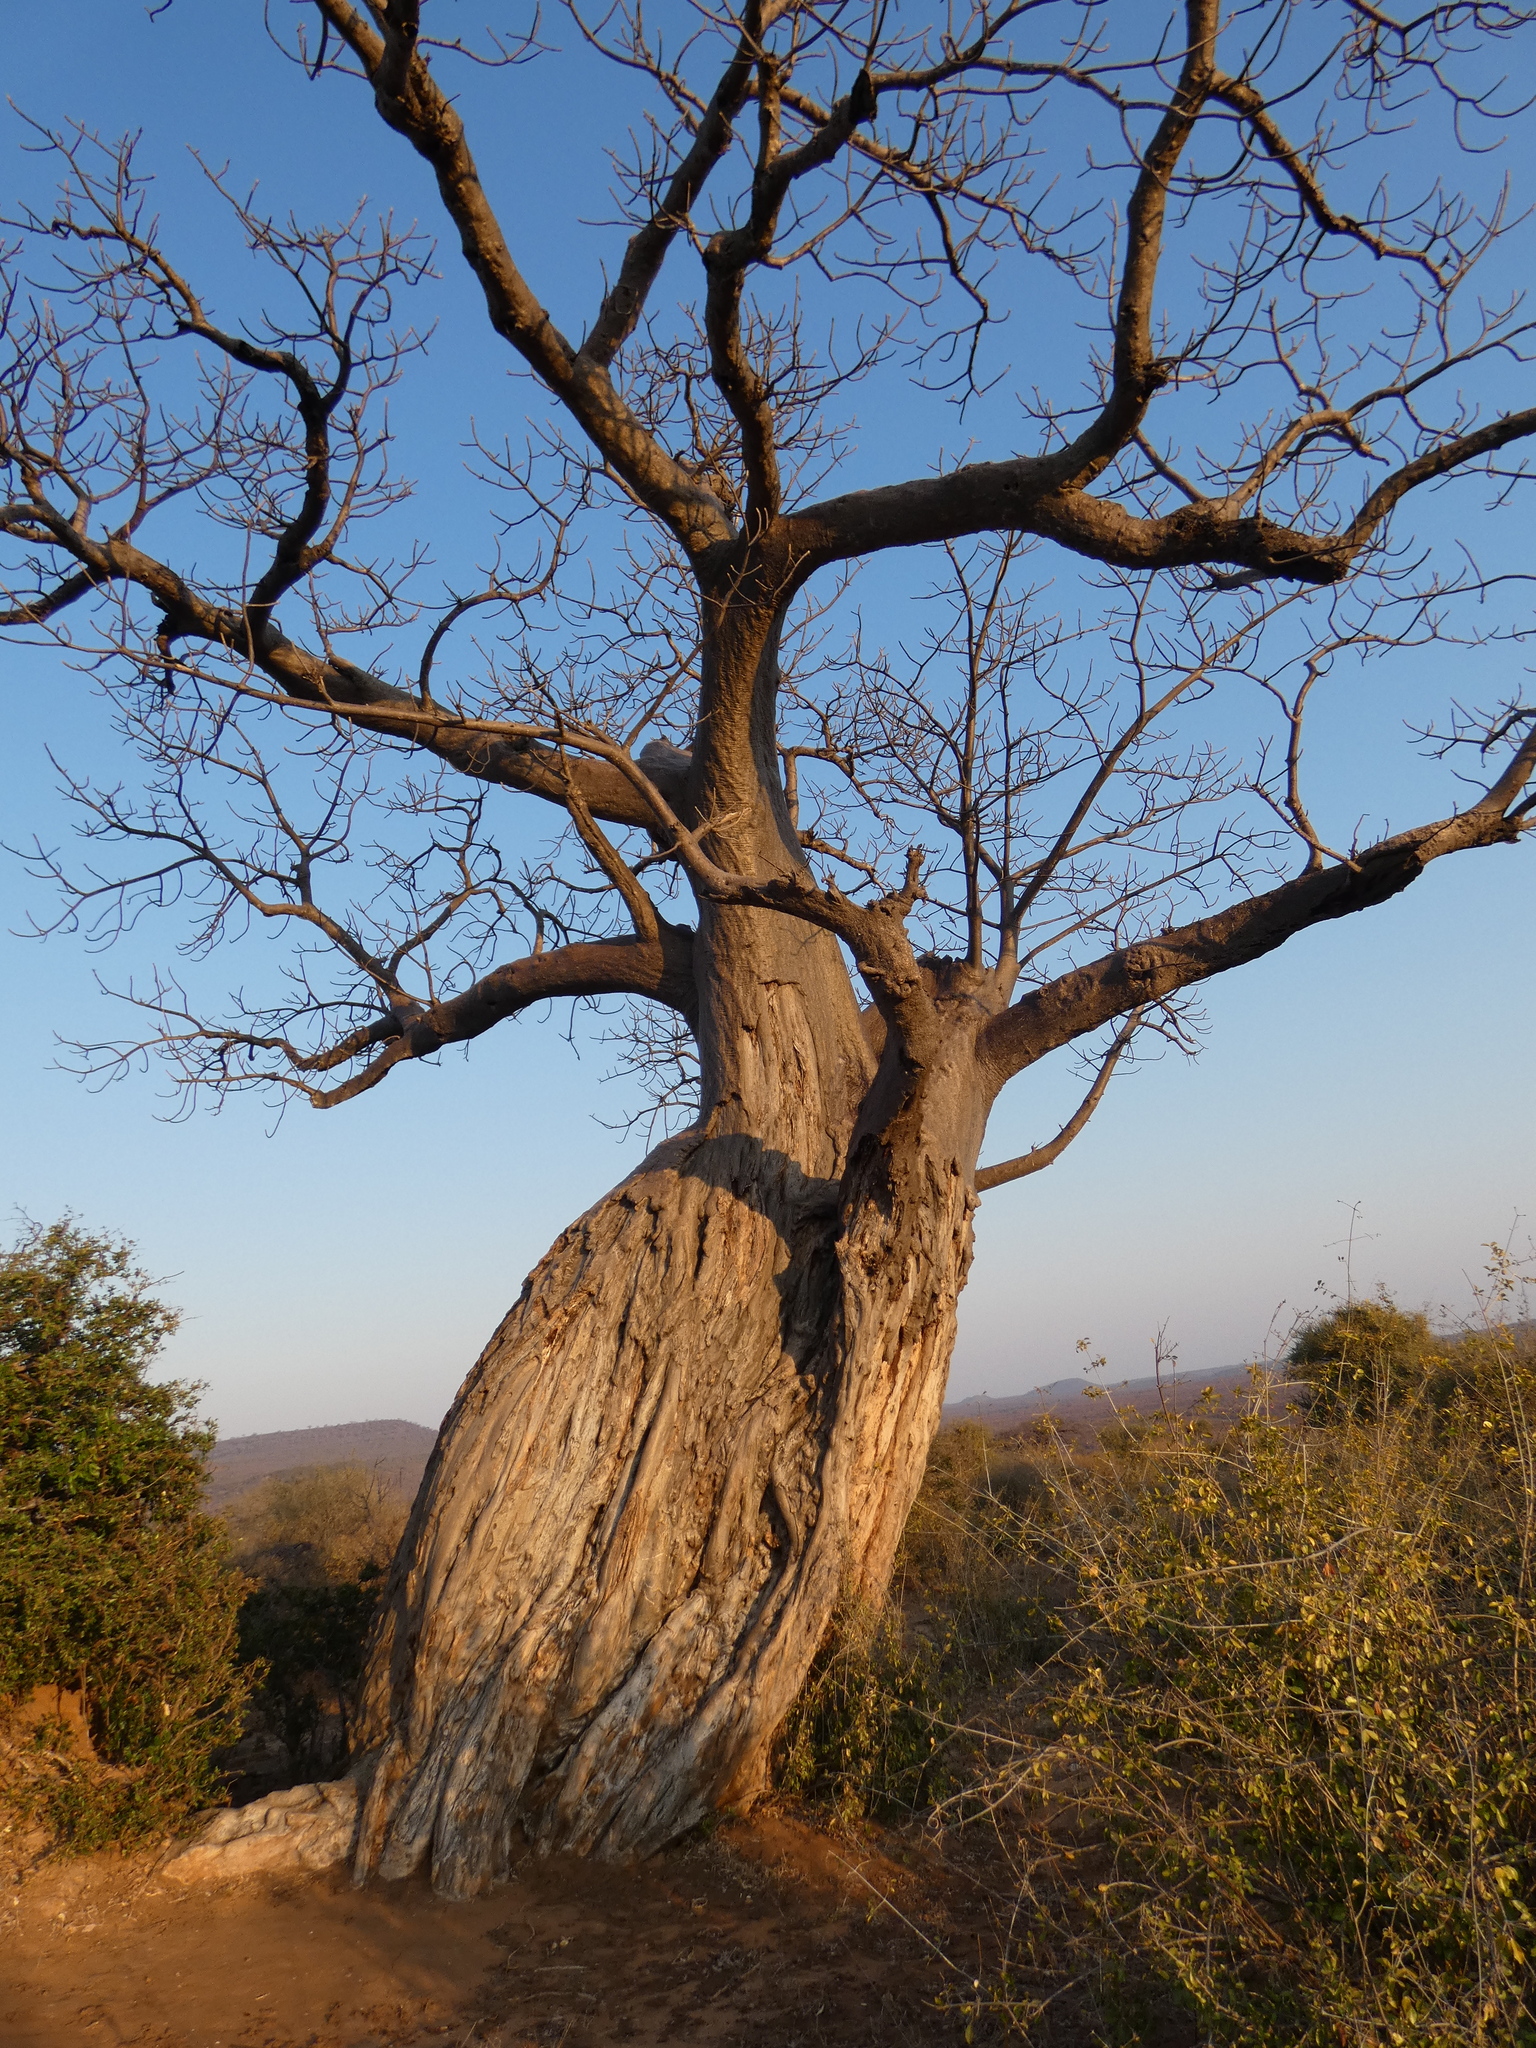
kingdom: Plantae
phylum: Tracheophyta
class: Magnoliopsida
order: Malvales
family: Malvaceae
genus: Adansonia
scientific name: Adansonia digitata
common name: Dead-rat-tree
